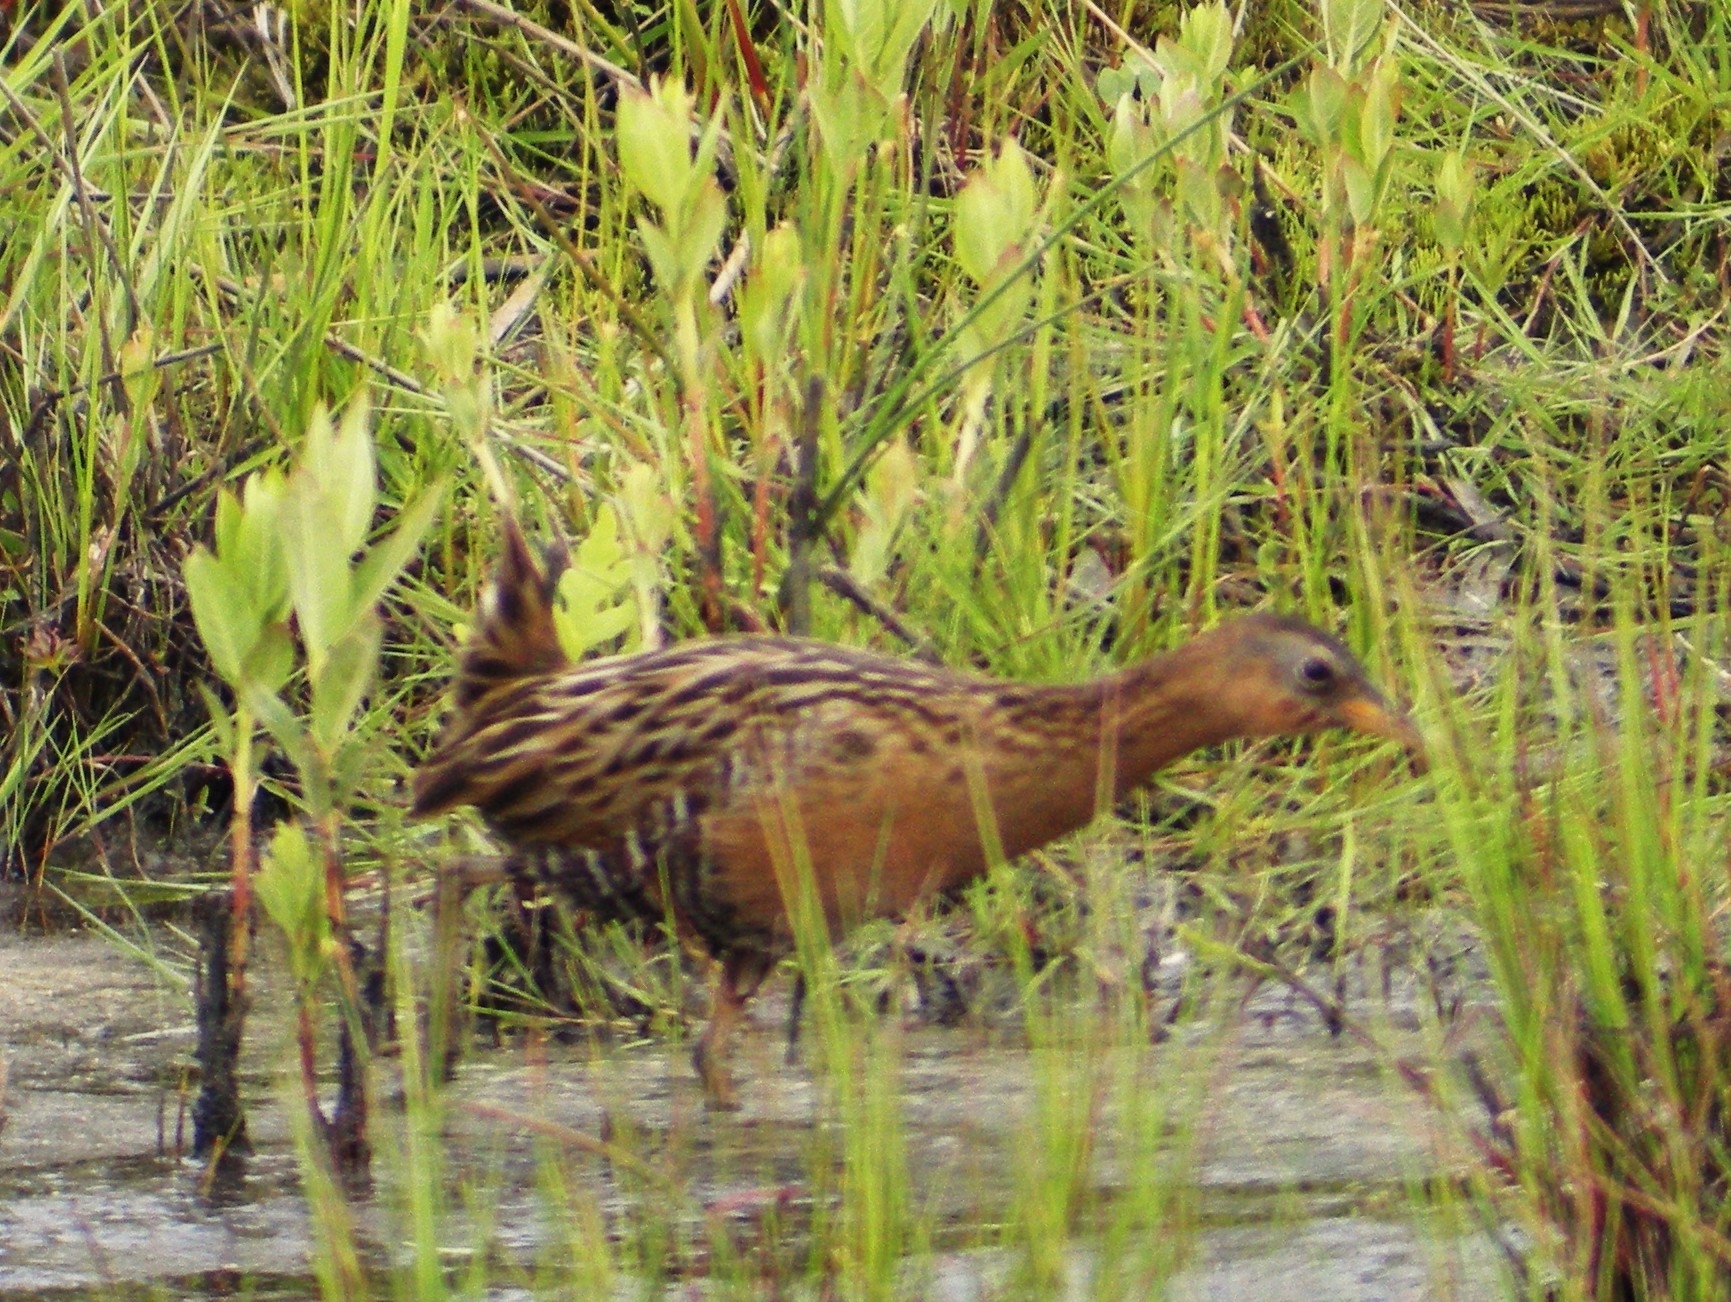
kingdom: Animalia
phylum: Chordata
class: Aves
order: Gruiformes
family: Rallidae
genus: Rallus
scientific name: Rallus elegans
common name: King rail
